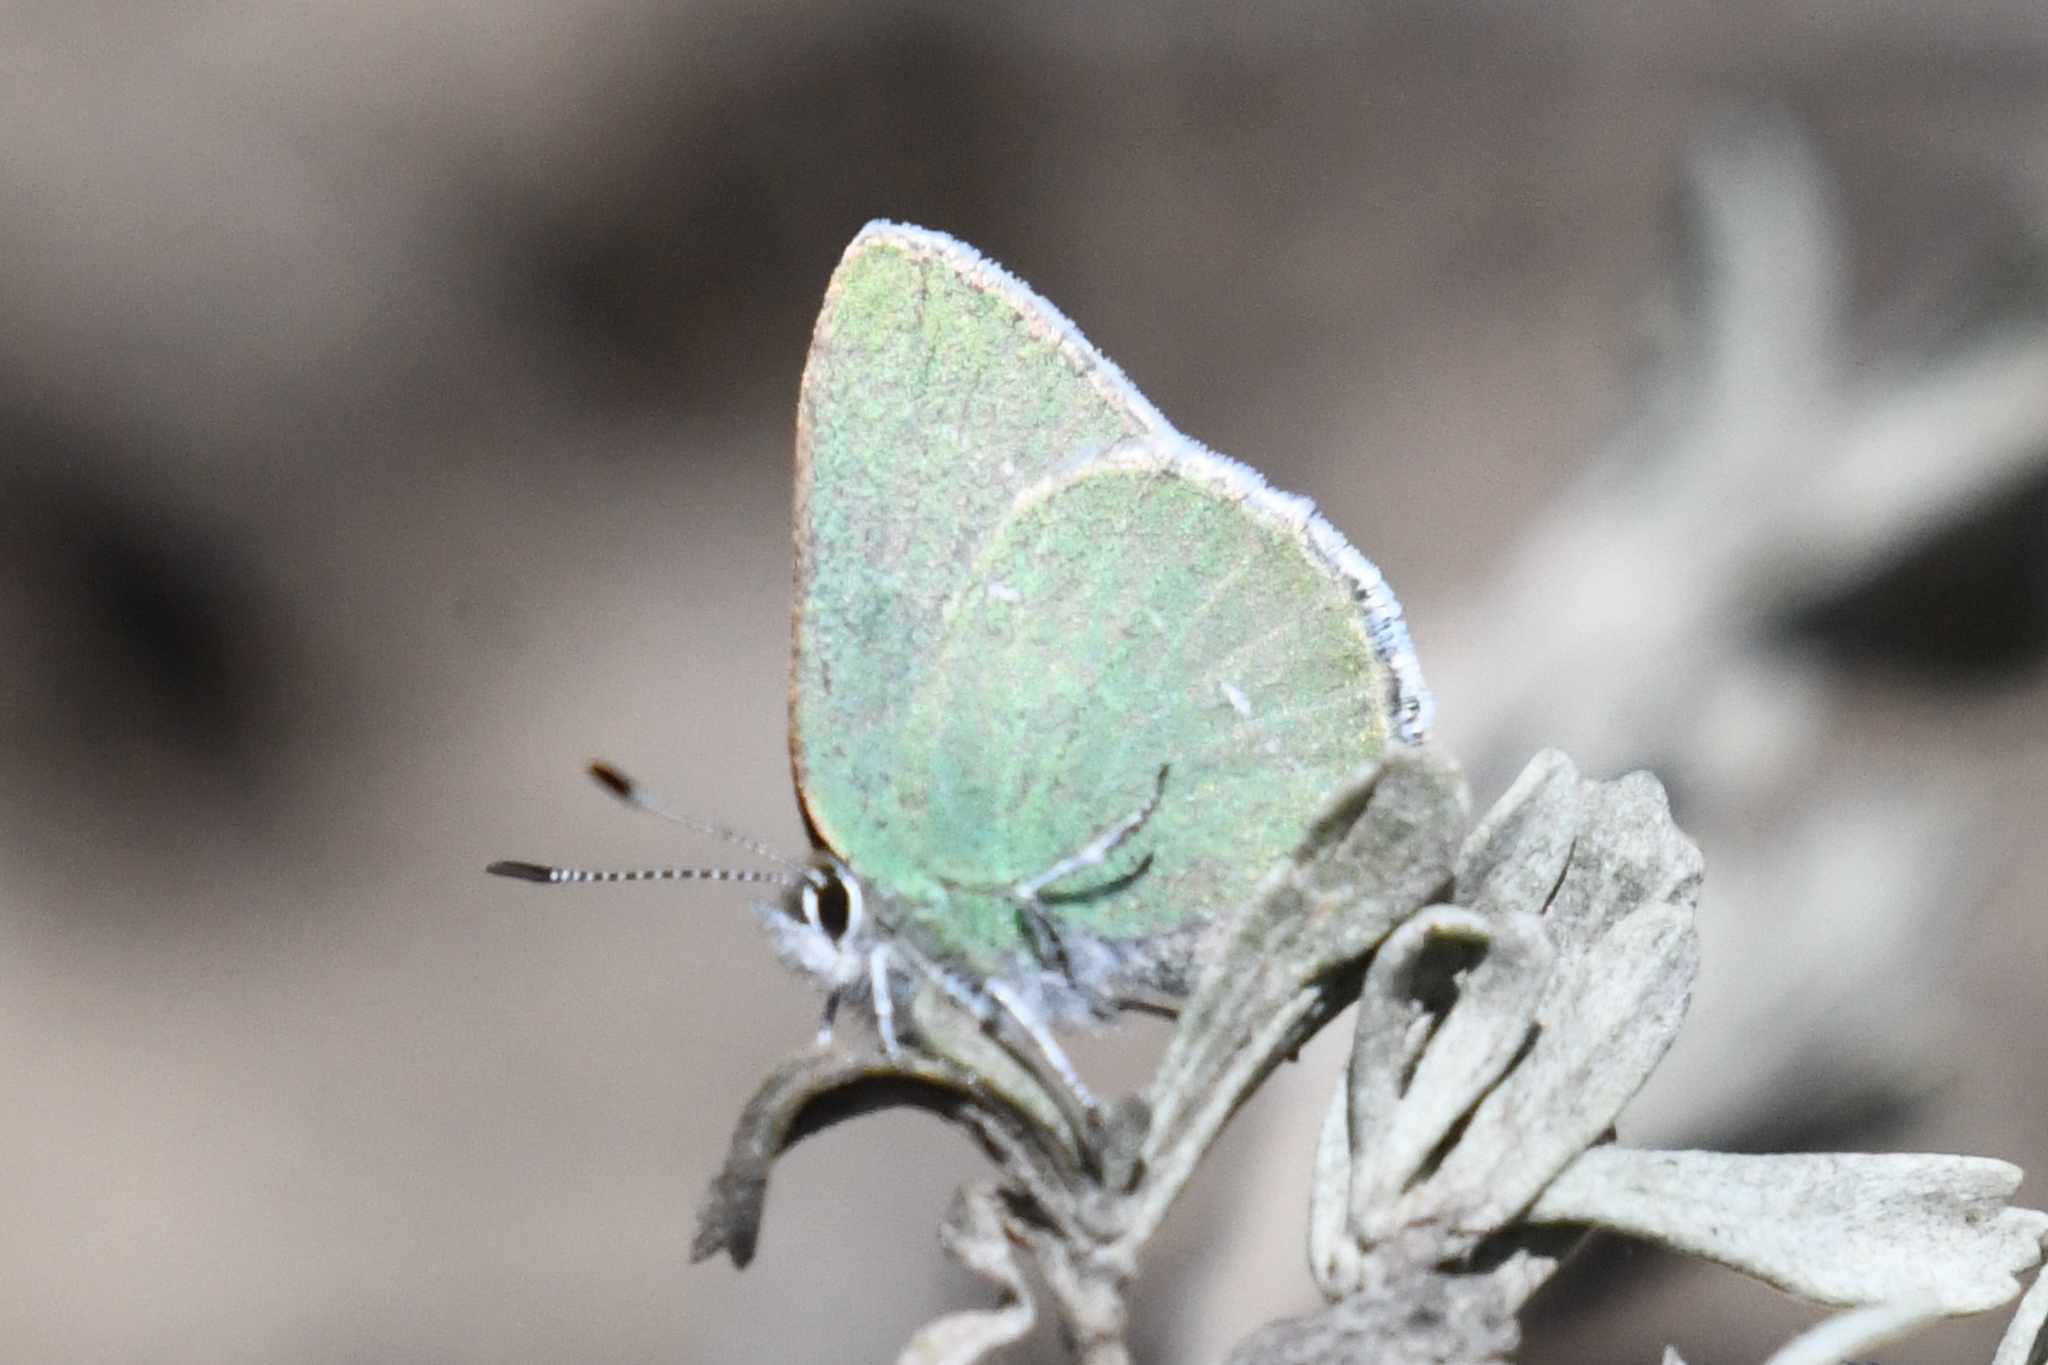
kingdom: Animalia
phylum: Arthropoda
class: Insecta
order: Lepidoptera
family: Lycaenidae
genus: Thecla
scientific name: Thecla sheridanii
